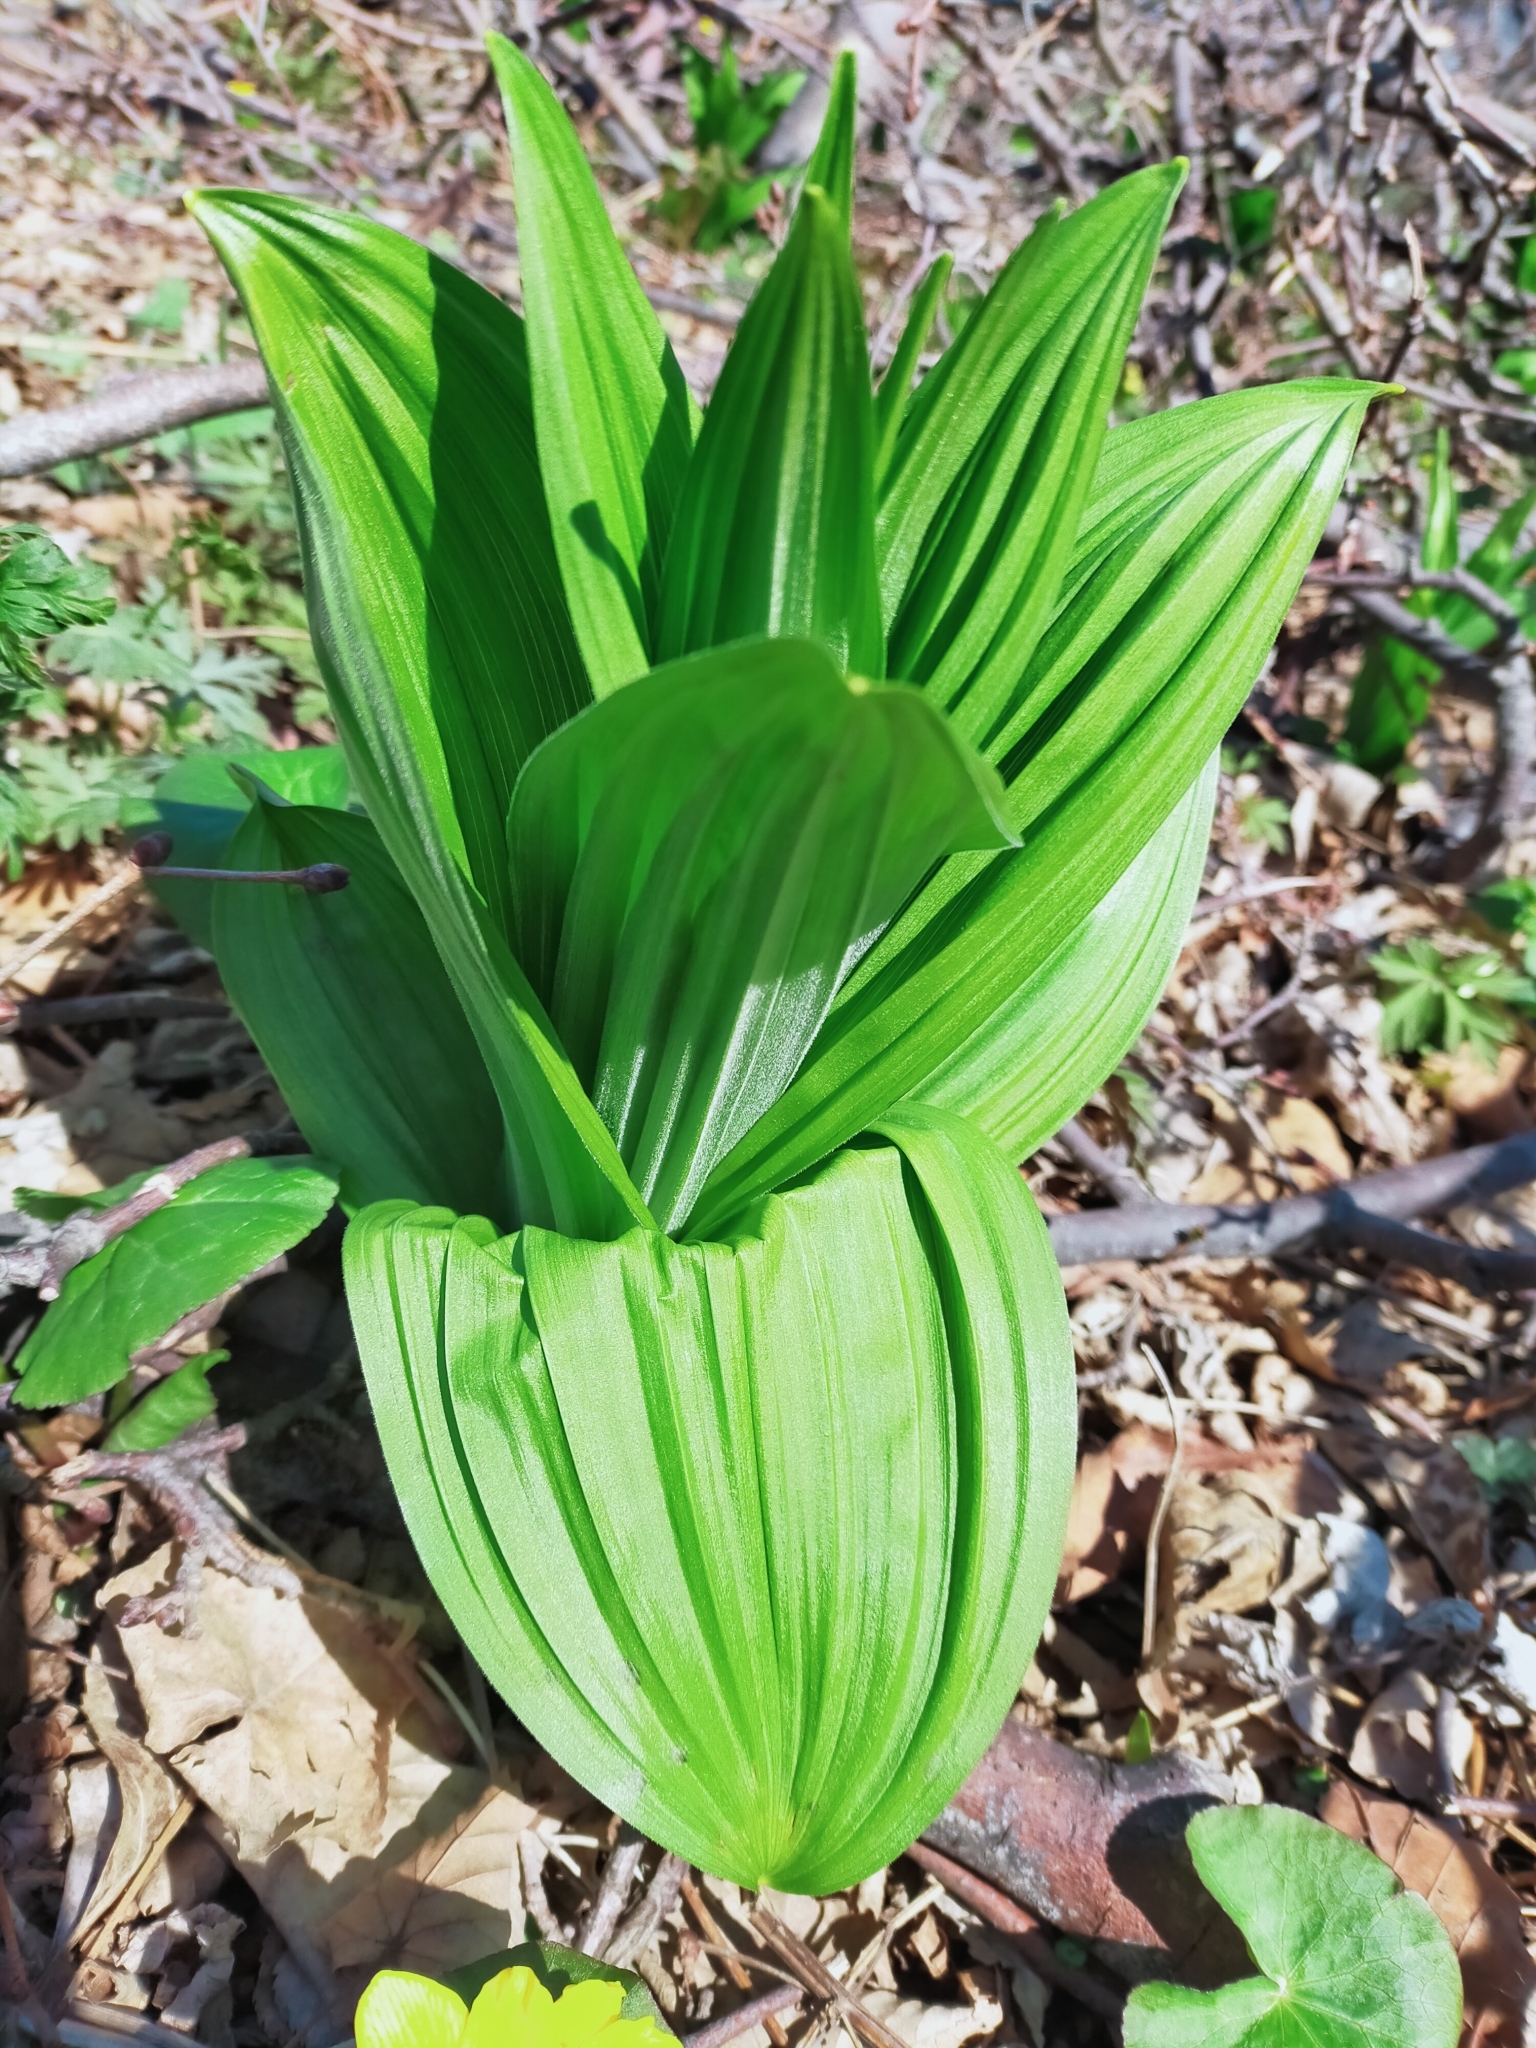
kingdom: Plantae
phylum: Tracheophyta
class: Liliopsida
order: Liliales
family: Melanthiaceae
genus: Veratrum
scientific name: Veratrum dahuricum
